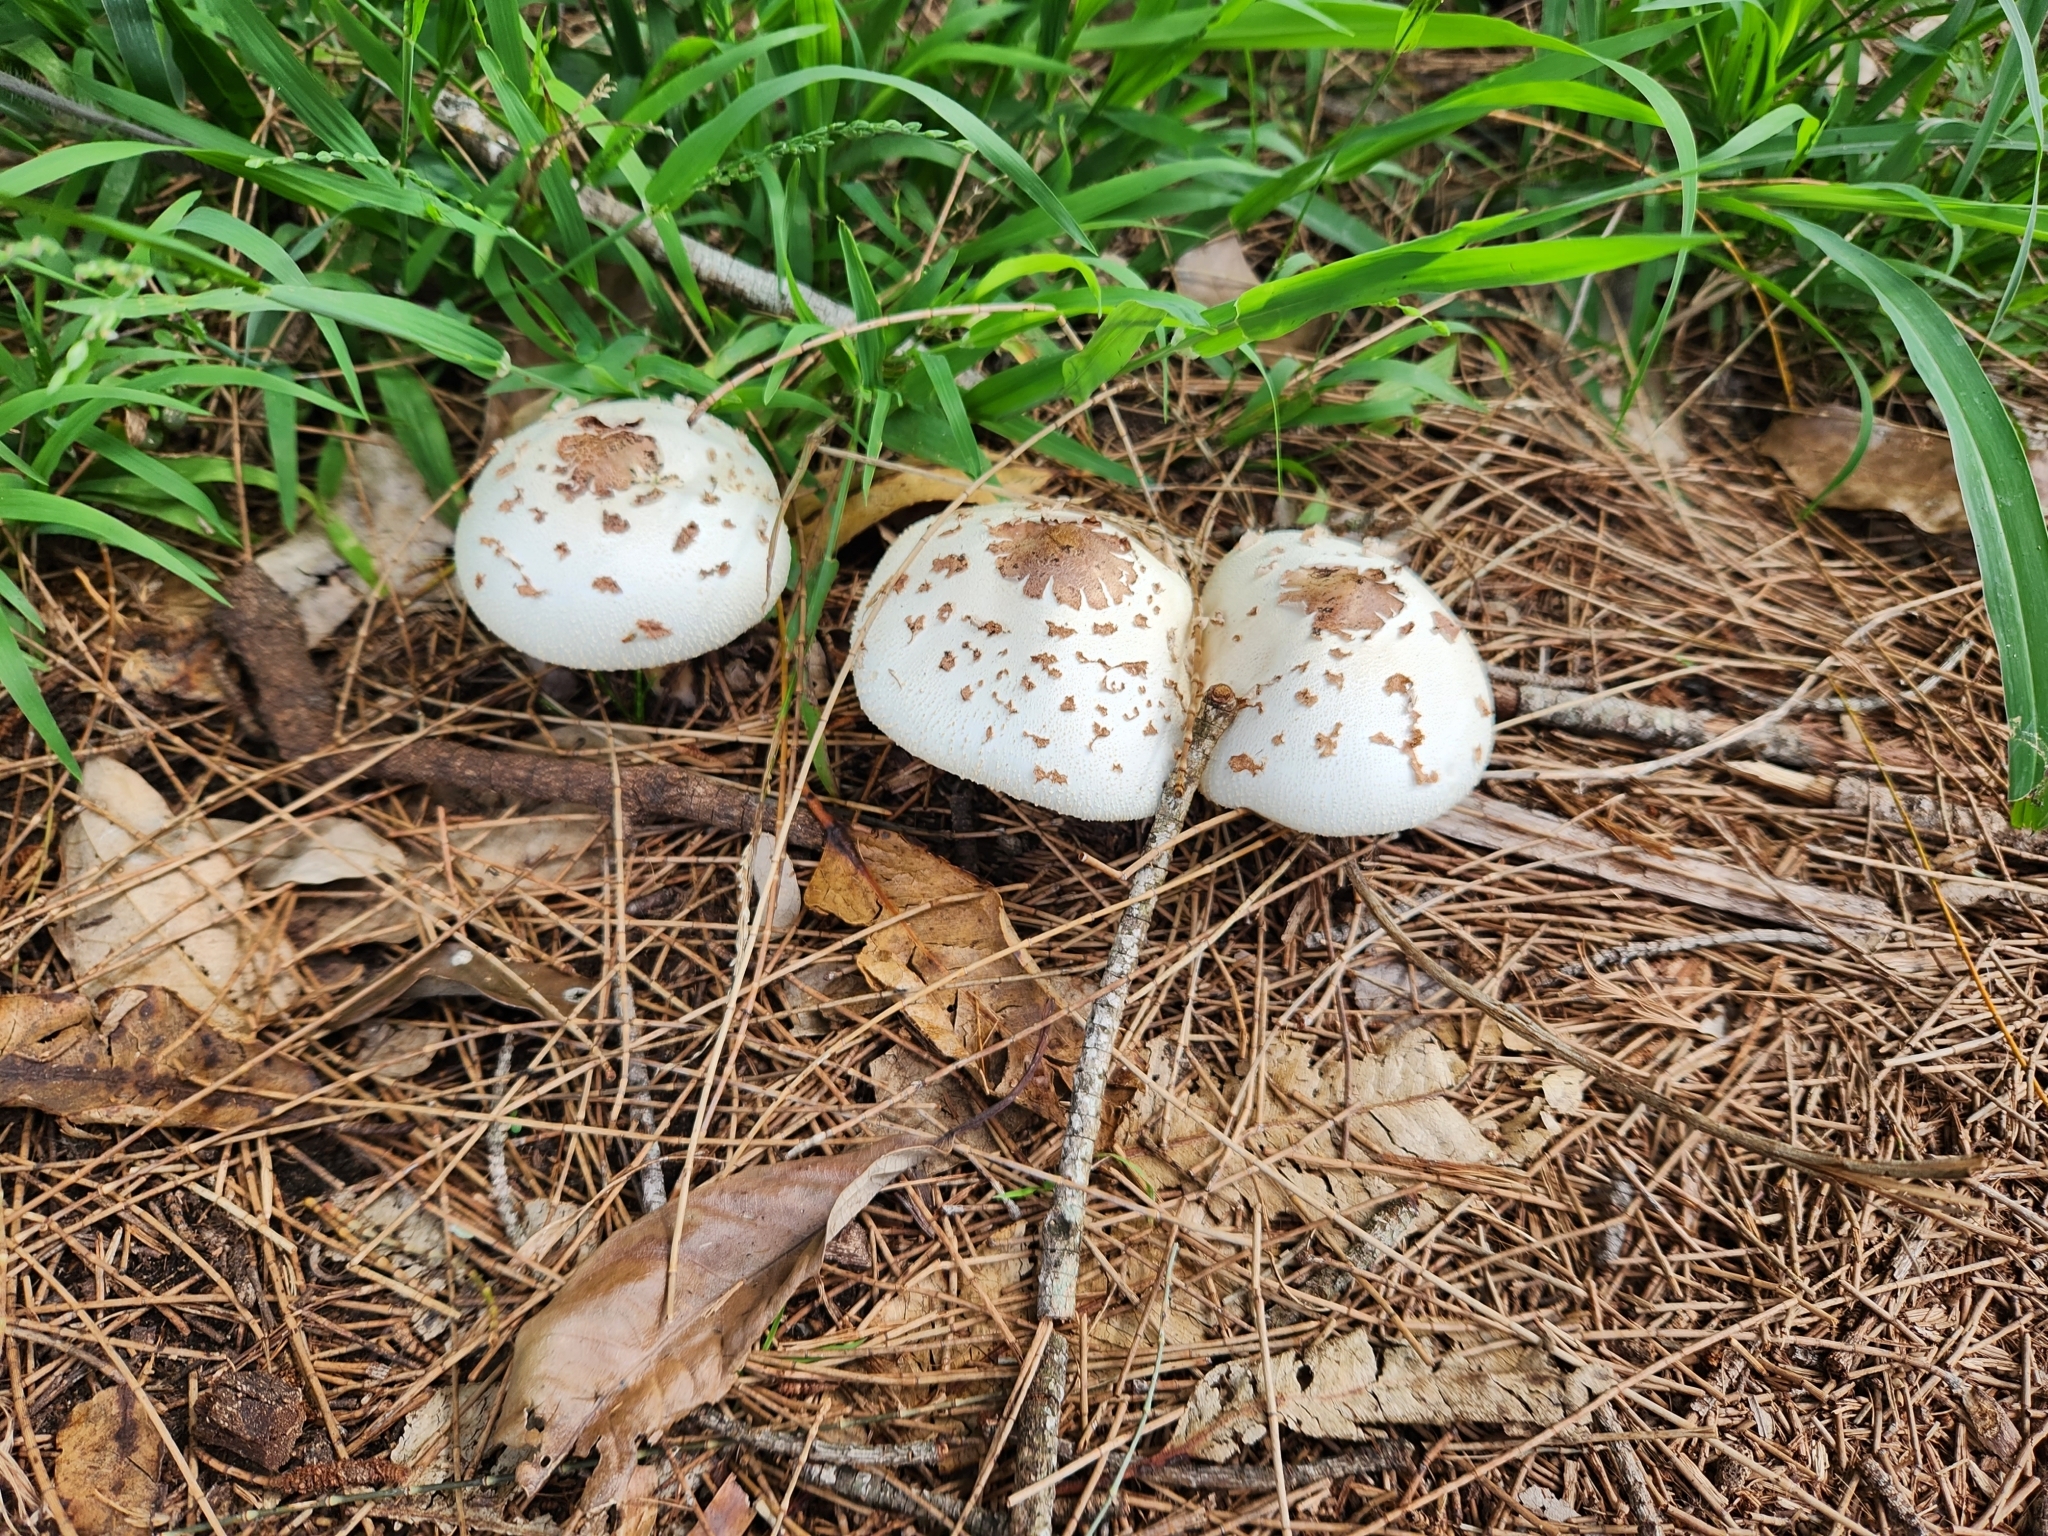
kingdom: Fungi
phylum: Basidiomycota
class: Agaricomycetes
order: Agaricales
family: Agaricaceae
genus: Chlorophyllum
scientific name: Chlorophyllum molybdites
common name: False parasol
